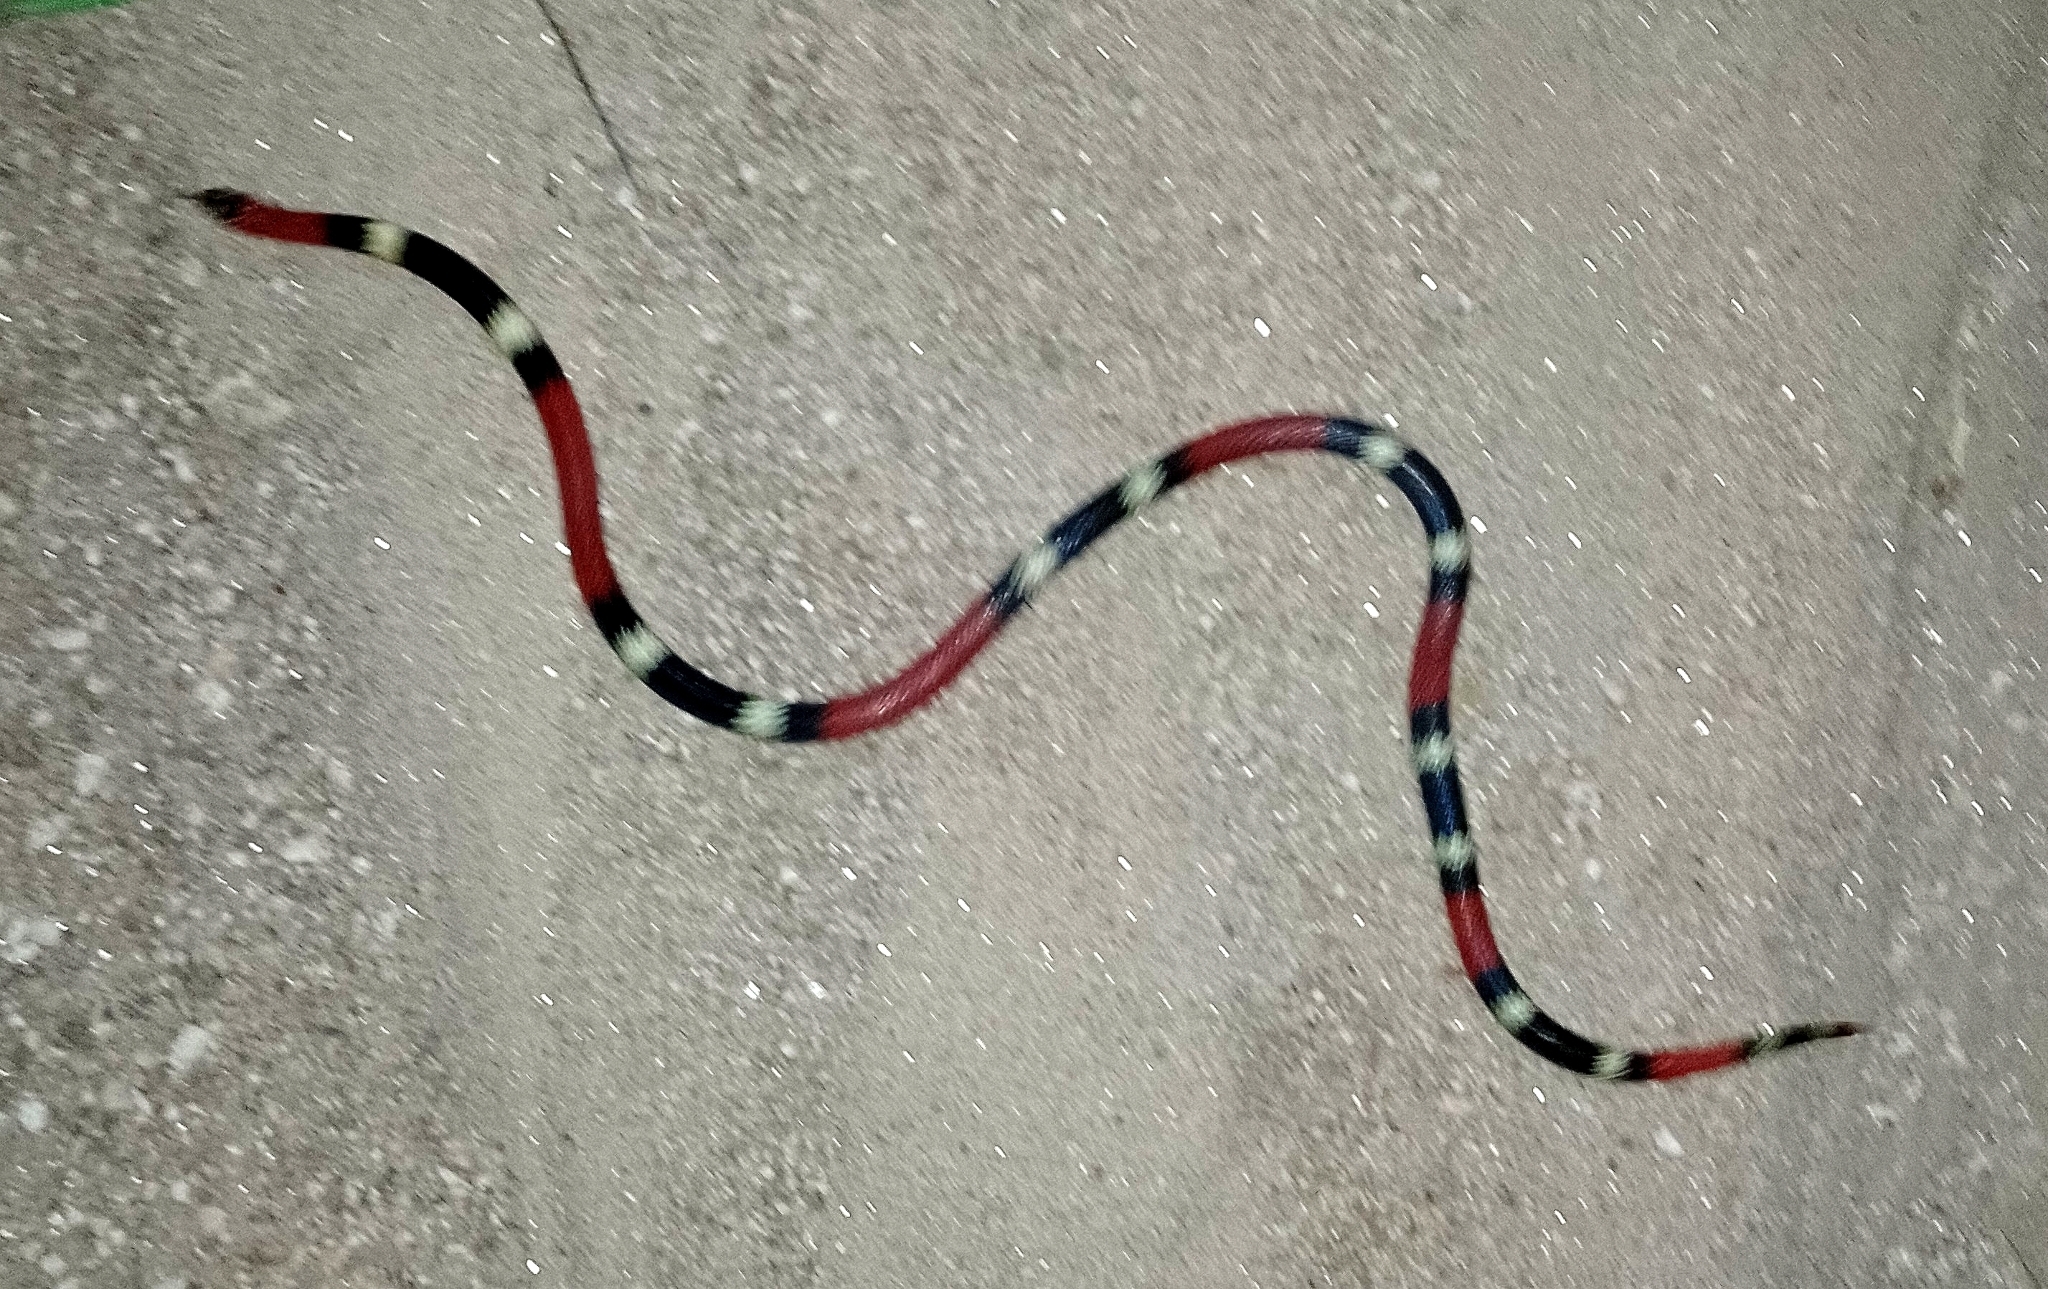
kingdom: Animalia
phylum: Chordata
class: Squamata
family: Elapidae
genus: Micrurus
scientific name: Micrurus pyrrhocryptus
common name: Argentinian coral snake
